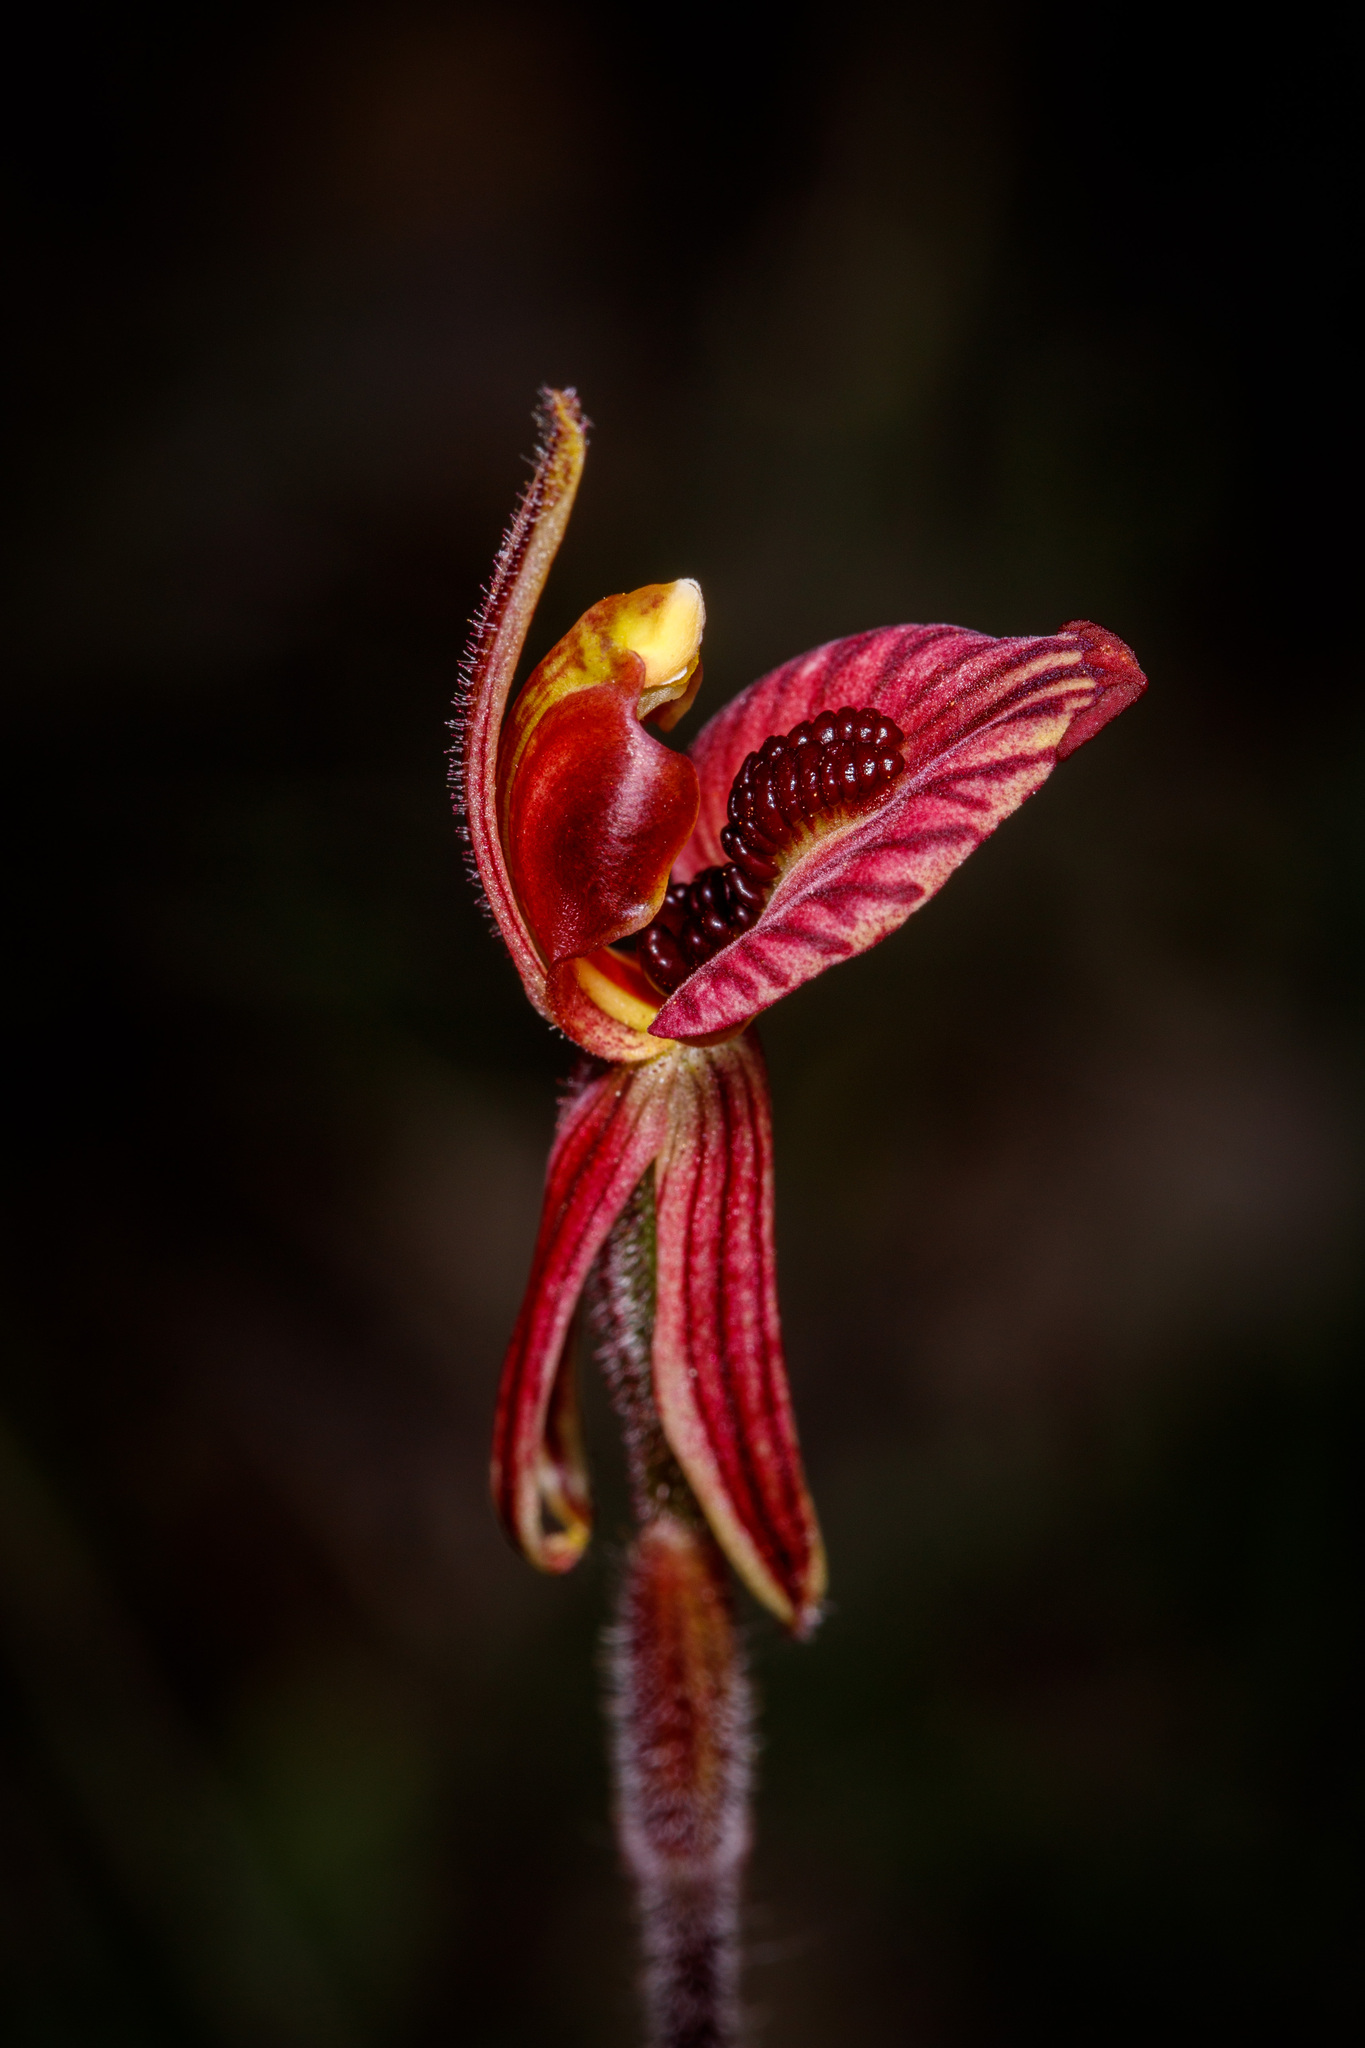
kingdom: Plantae
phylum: Tracheophyta
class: Liliopsida
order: Asparagales
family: Orchidaceae
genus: Caladenia
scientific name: Caladenia cairnsiana
